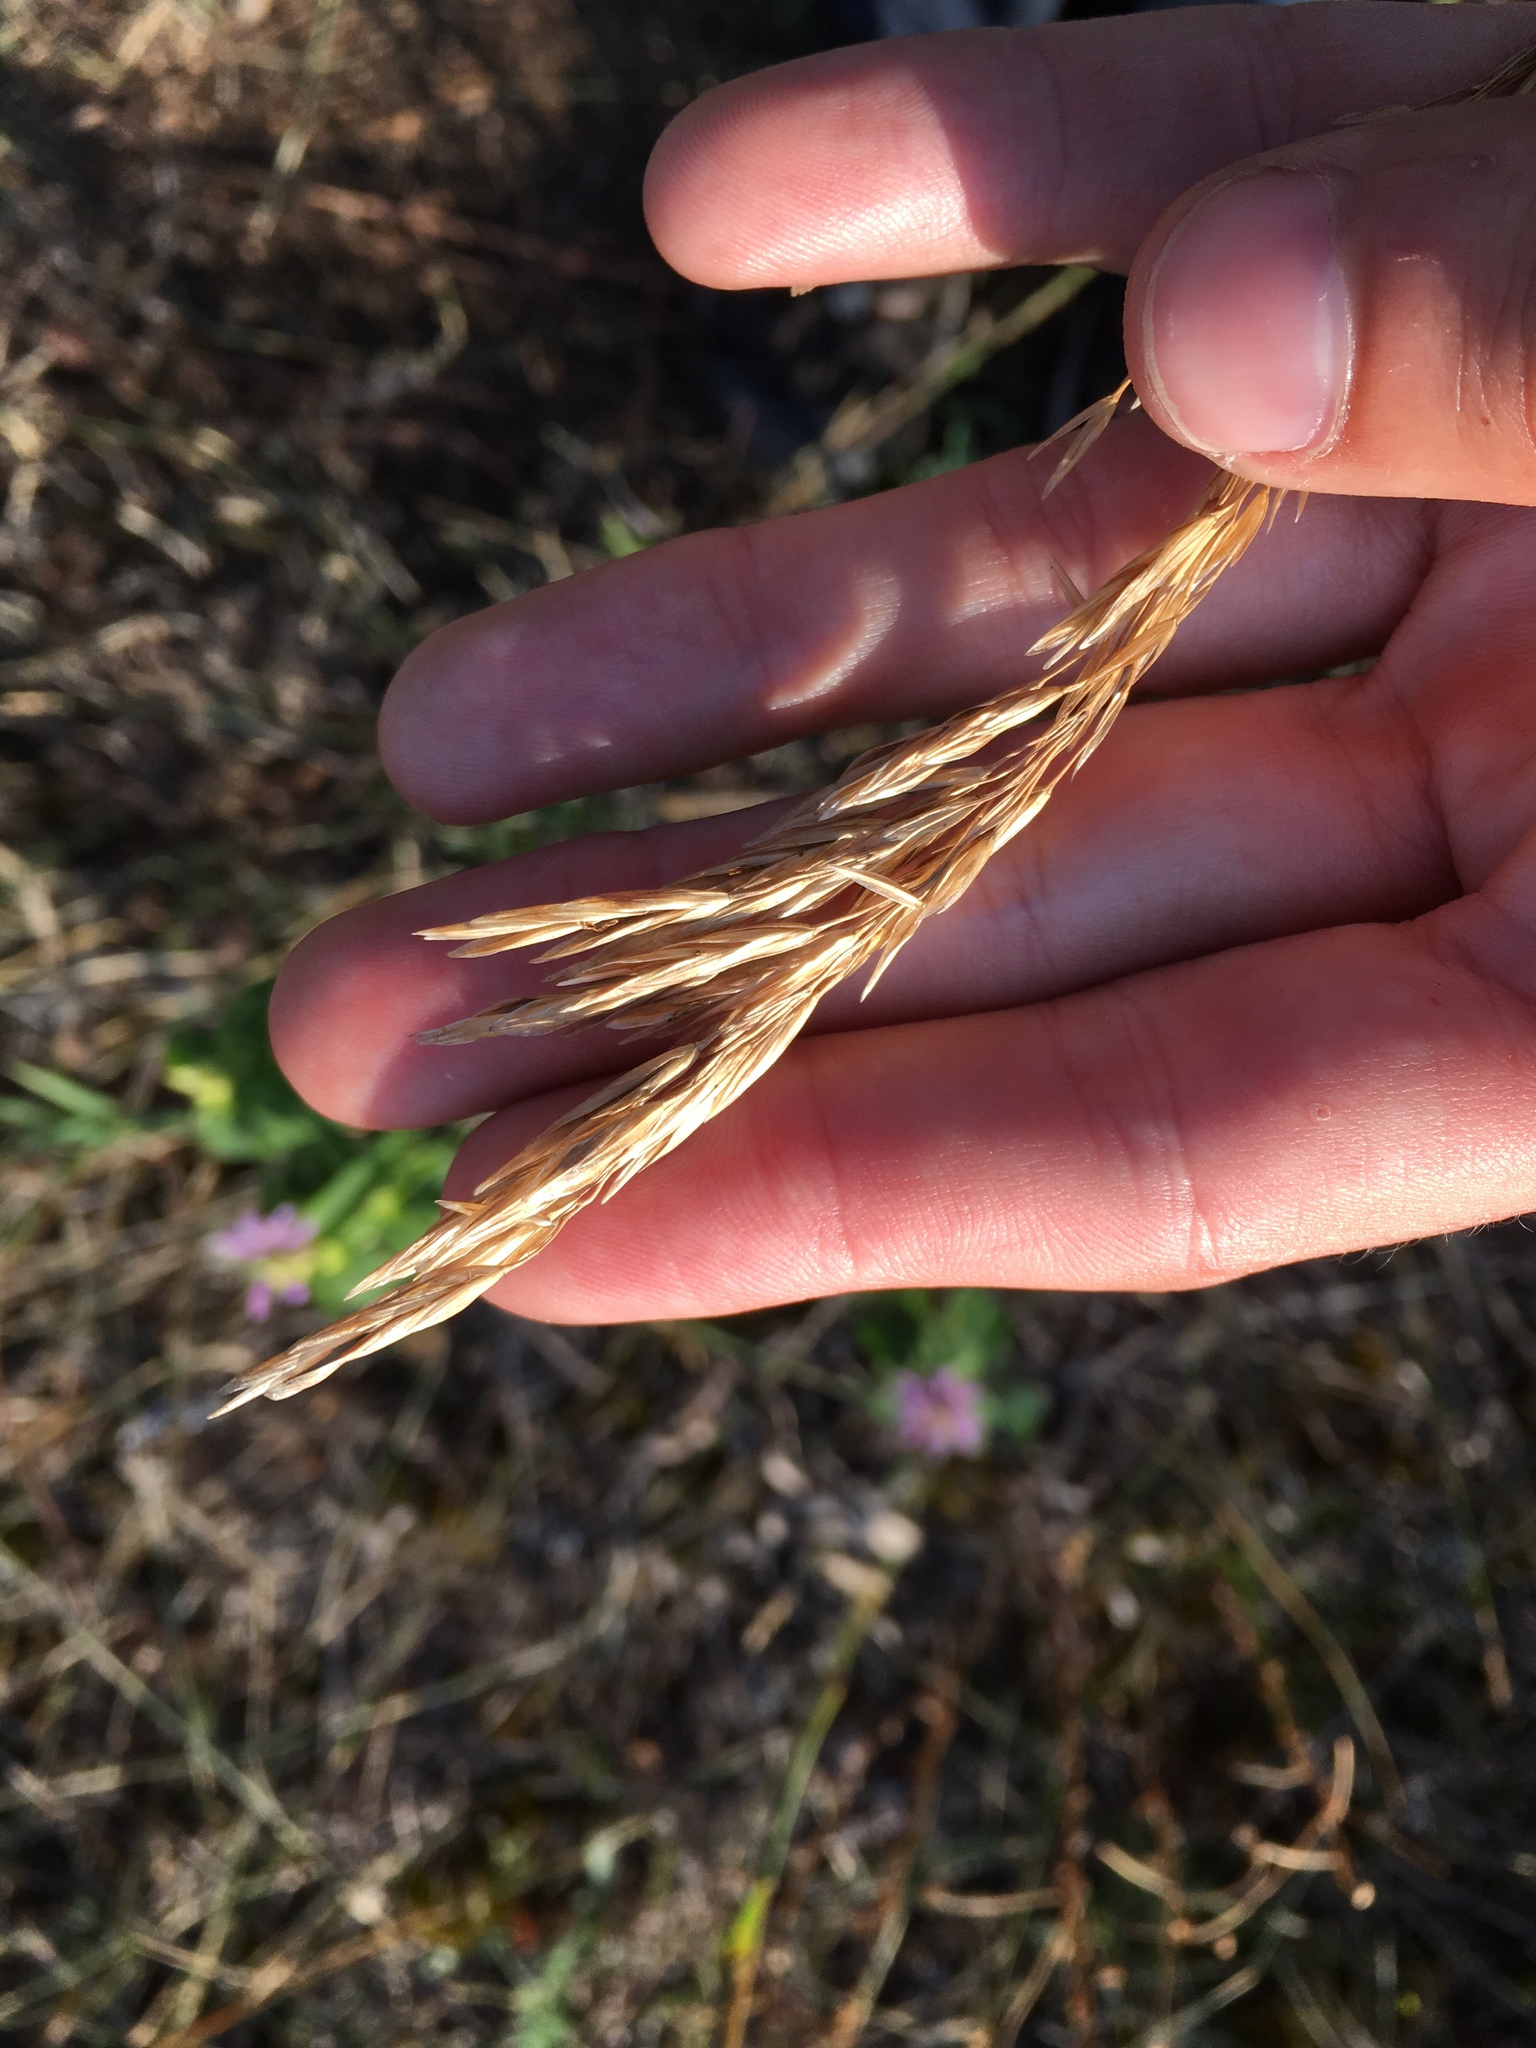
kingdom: Plantae
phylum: Tracheophyta
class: Liliopsida
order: Poales
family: Poaceae
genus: Bromus
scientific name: Bromus inermis
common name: Smooth brome
